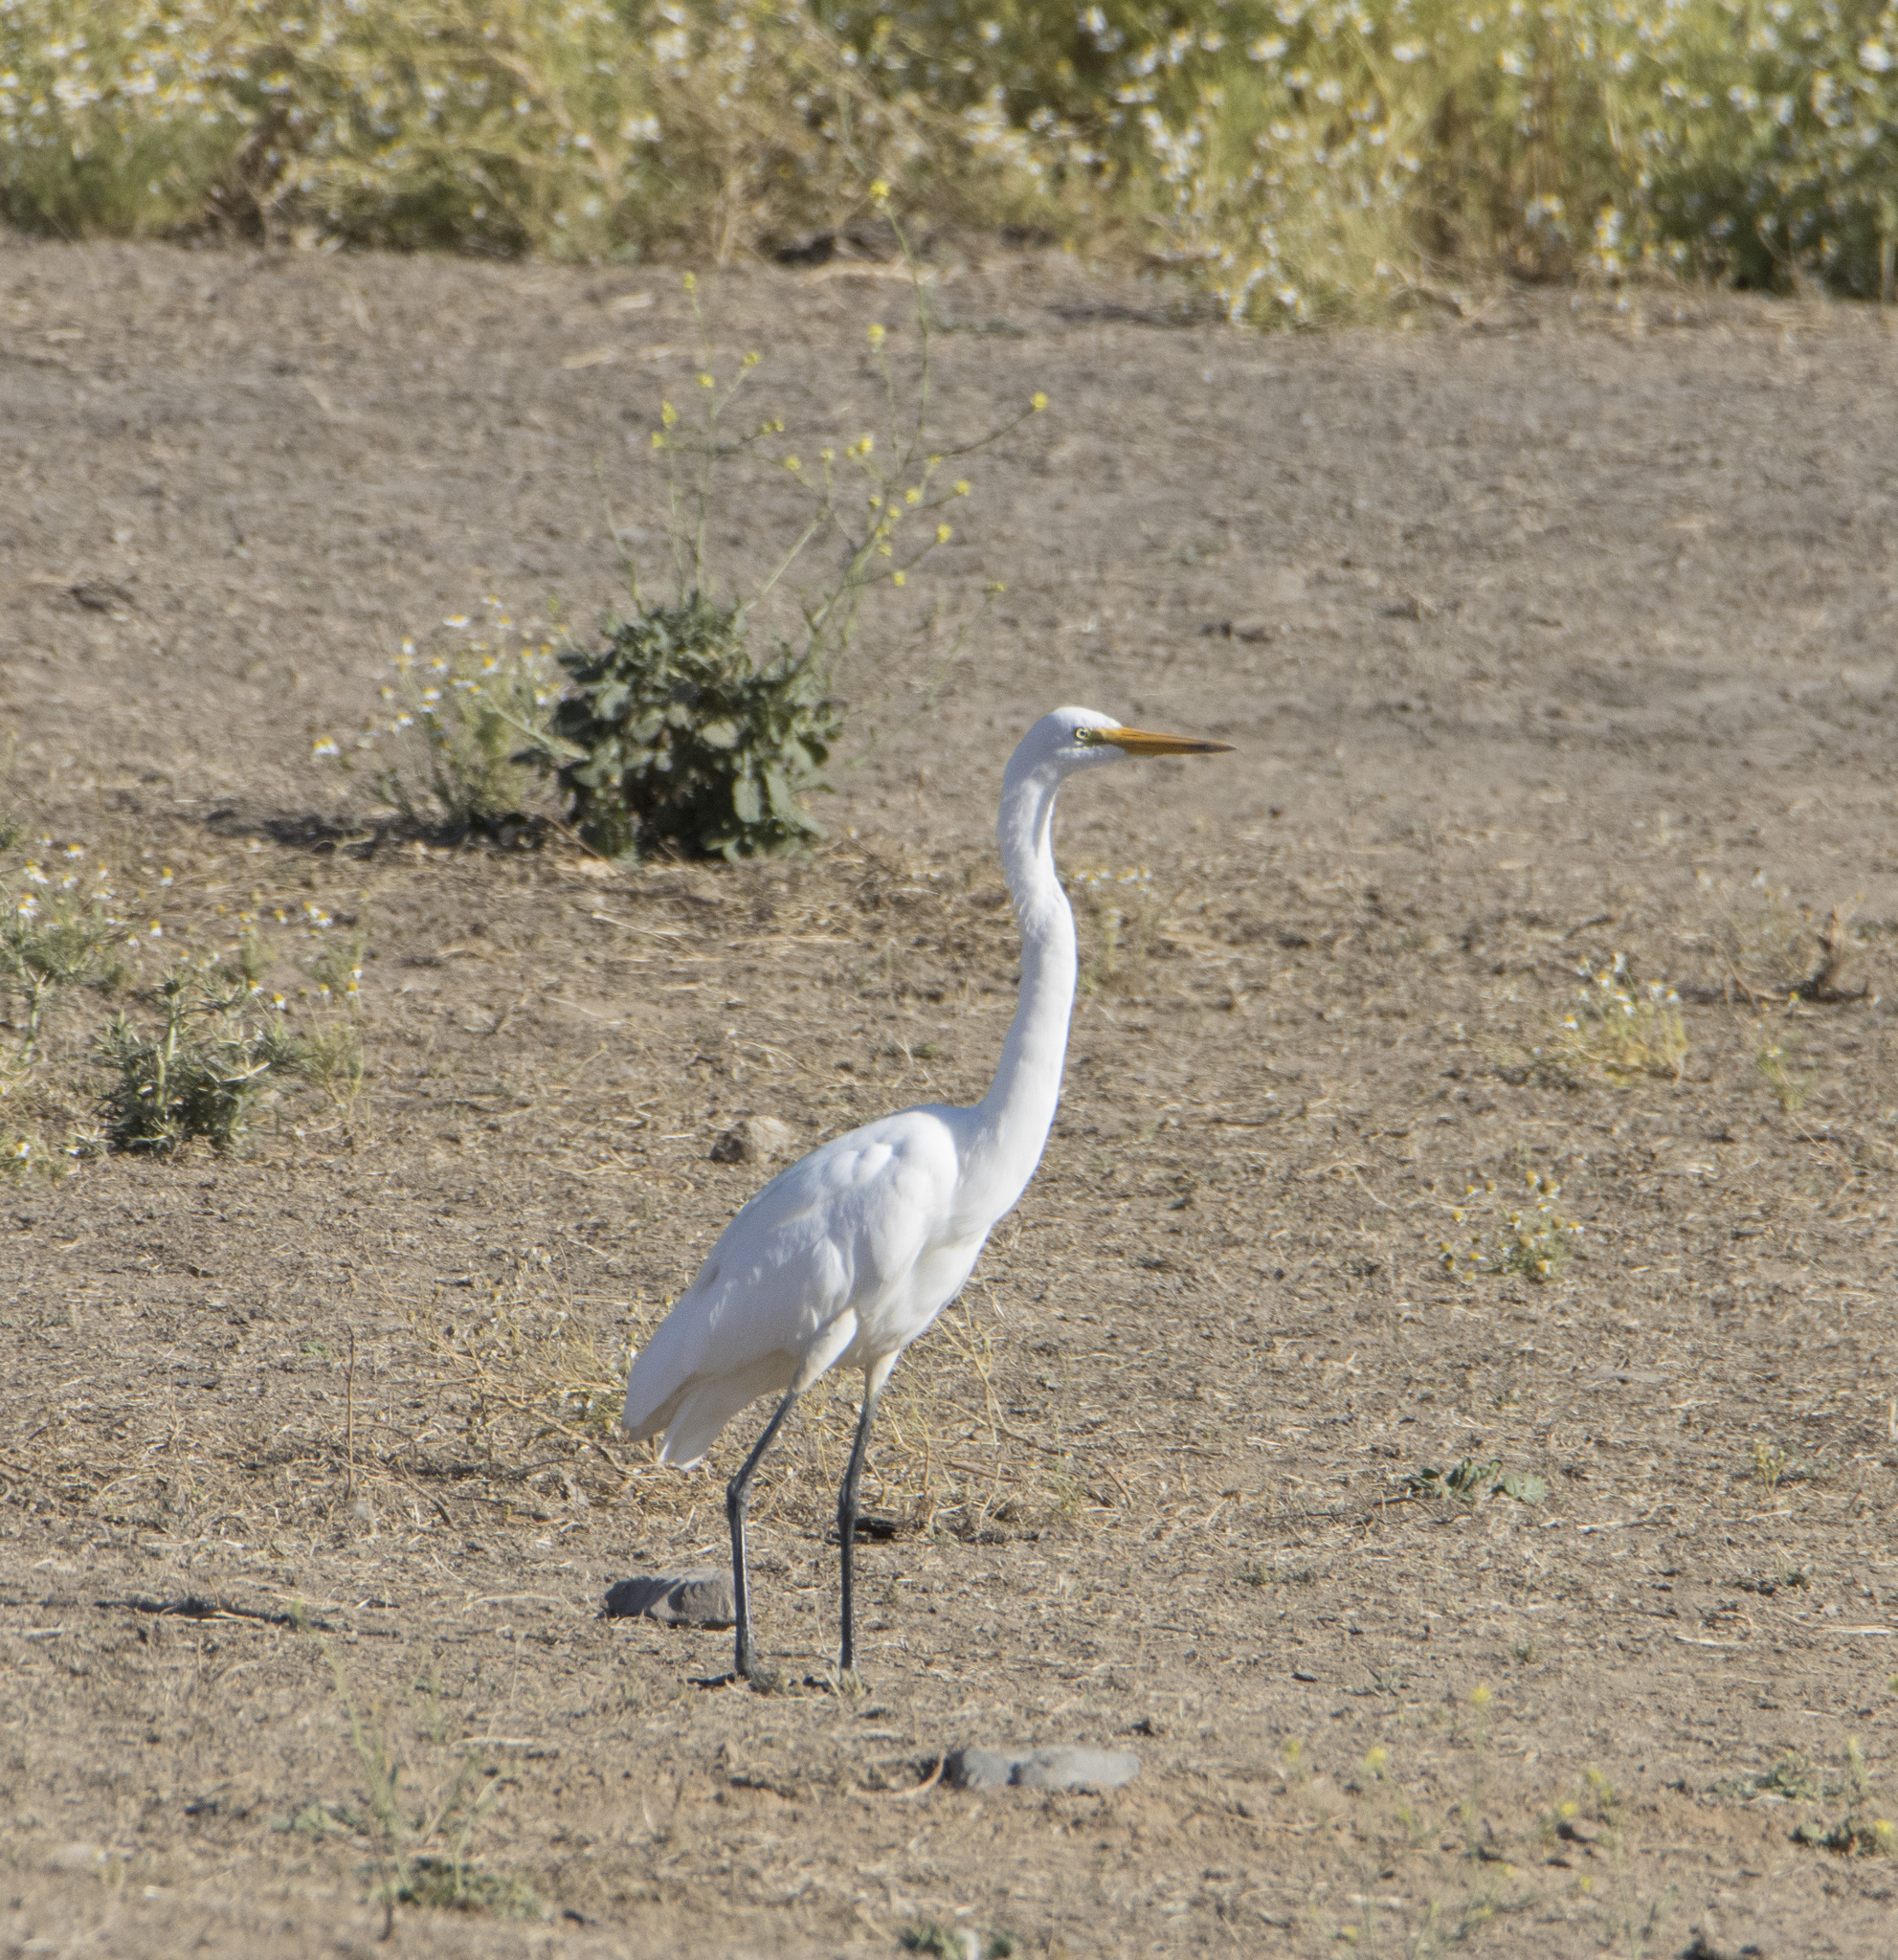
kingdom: Animalia
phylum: Chordata
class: Aves
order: Pelecaniformes
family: Ardeidae
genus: Ardea
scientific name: Ardea alba
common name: Great egret
